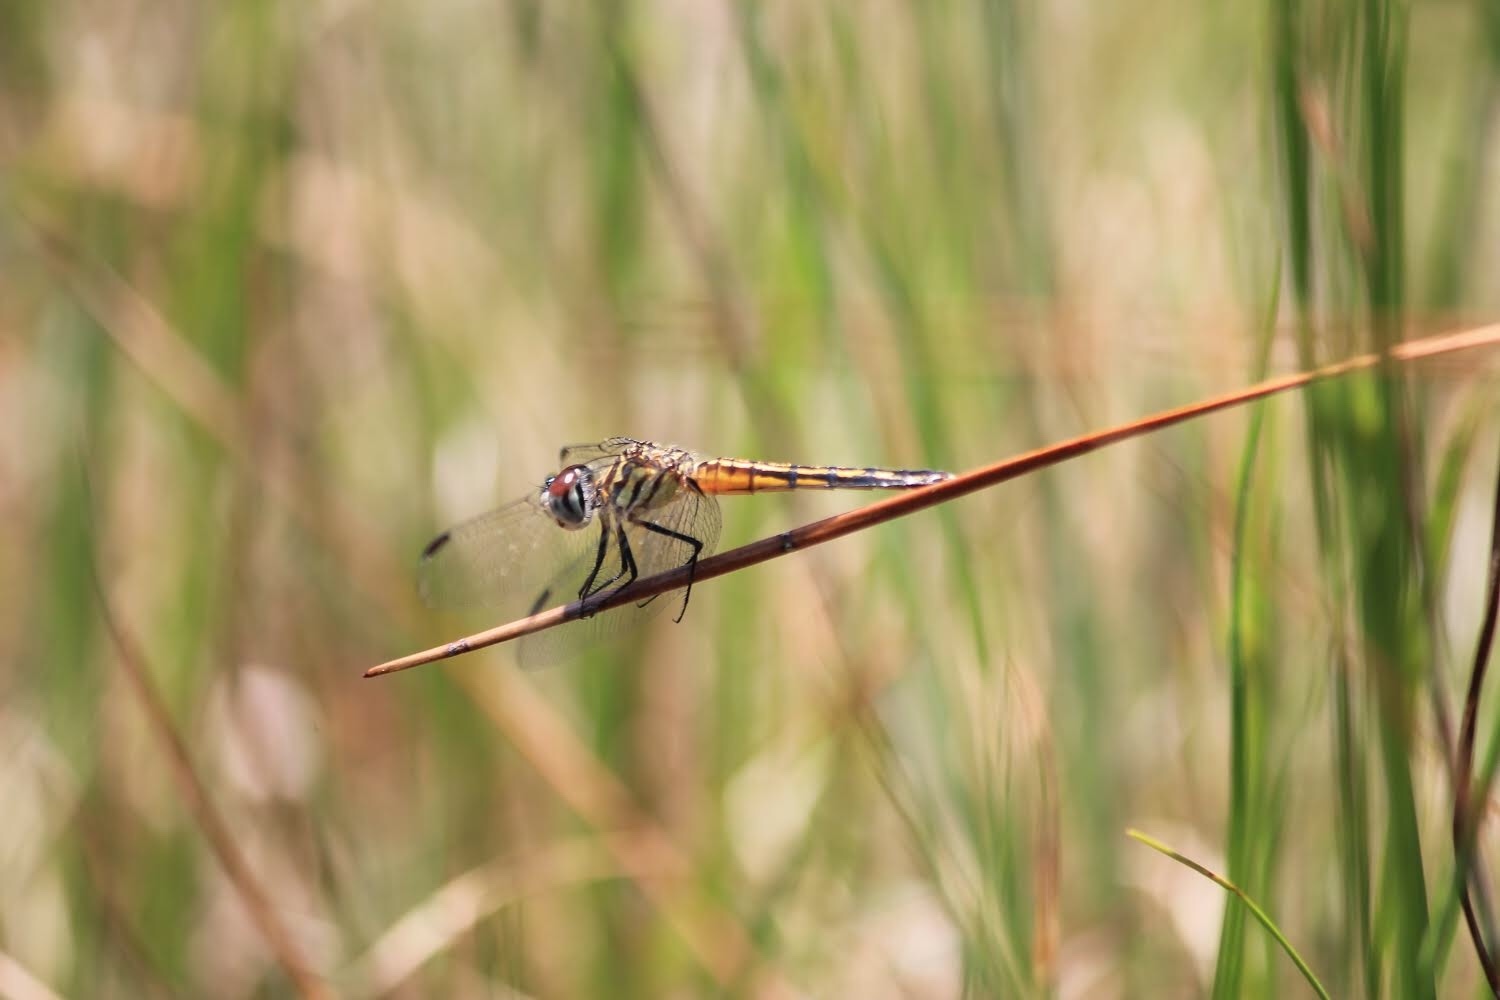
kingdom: Animalia
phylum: Arthropoda
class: Insecta
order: Odonata
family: Libellulidae
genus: Pachydiplax
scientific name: Pachydiplax longipennis
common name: Blue dasher
